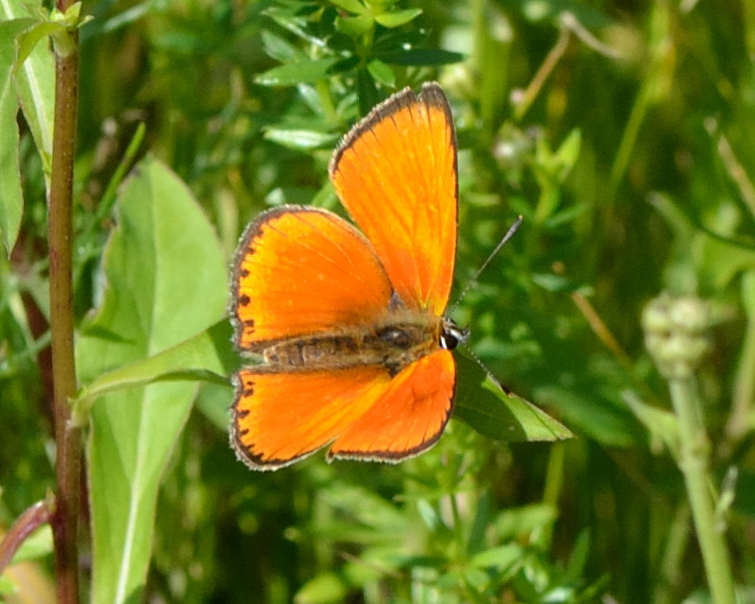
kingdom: Animalia
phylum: Arthropoda
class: Insecta
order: Lepidoptera
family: Lycaenidae
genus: Lycaena
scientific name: Lycaena virgaureae
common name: Scarce copper
